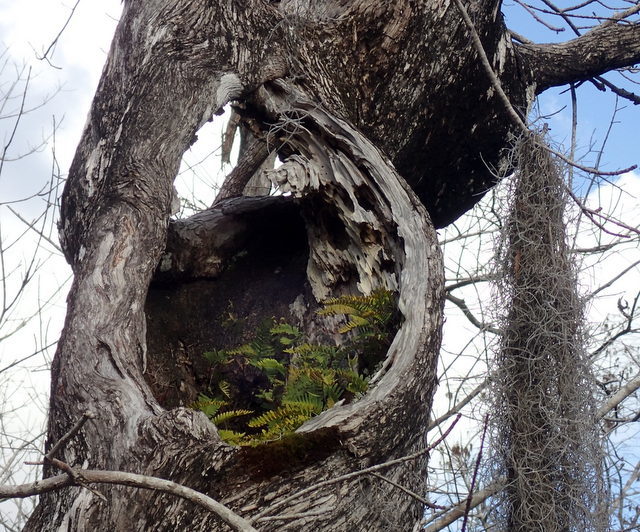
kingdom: Plantae
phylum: Tracheophyta
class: Polypodiopsida
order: Polypodiales
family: Polypodiaceae
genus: Pleopeltis
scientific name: Pleopeltis michauxiana
